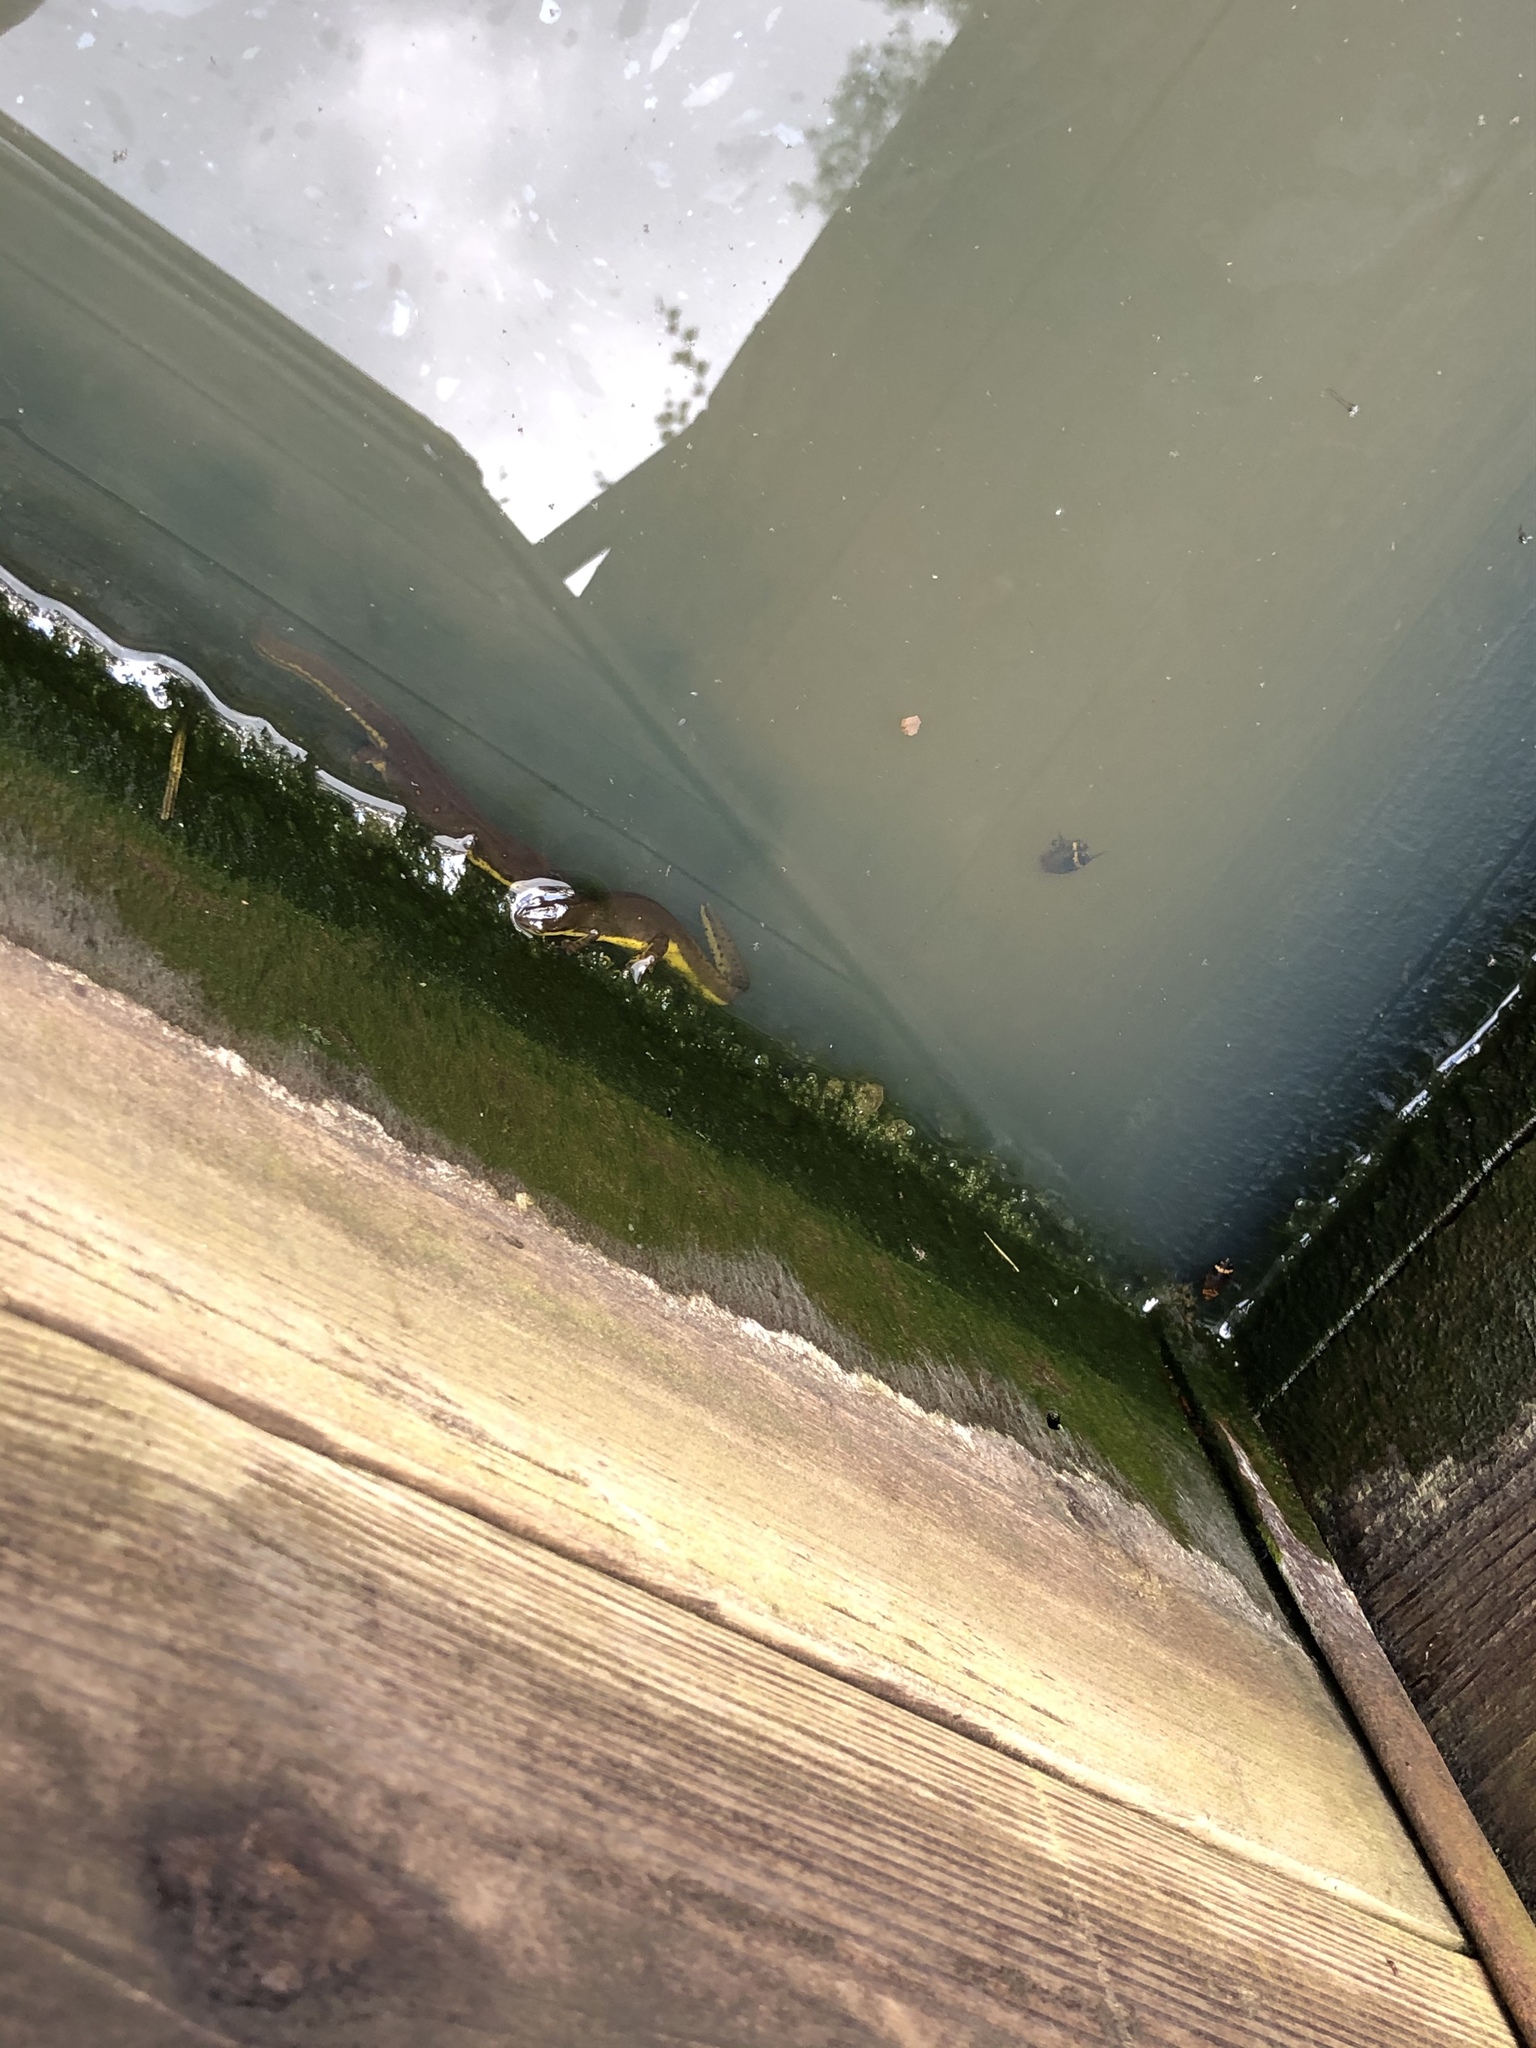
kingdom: Animalia
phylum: Chordata
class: Amphibia
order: Caudata
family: Salamandridae
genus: Notophthalmus
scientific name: Notophthalmus viridescens
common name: Eastern newt
